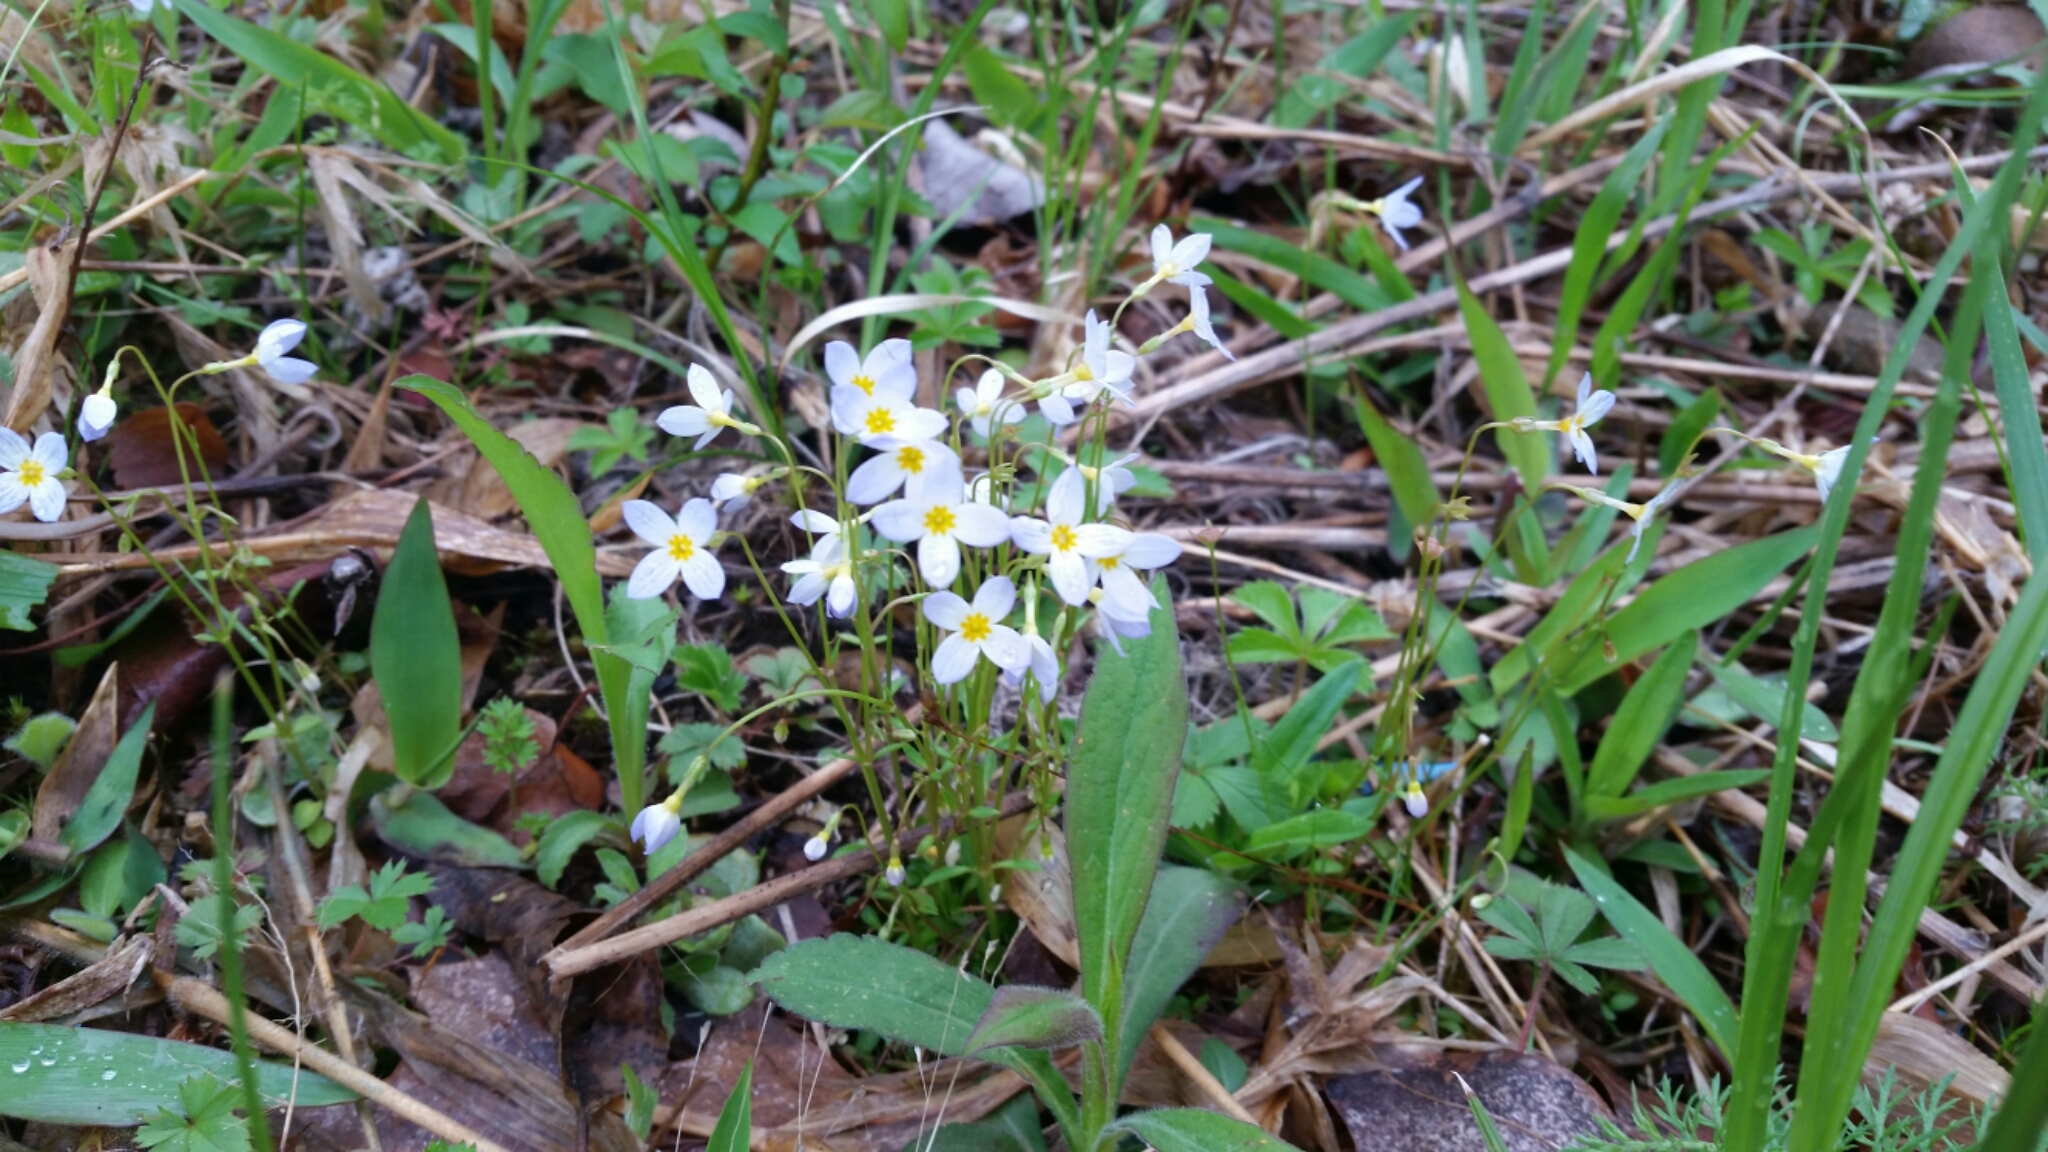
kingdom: Plantae
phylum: Tracheophyta
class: Magnoliopsida
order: Gentianales
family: Rubiaceae
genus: Houstonia
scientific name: Houstonia caerulea
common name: Bluets
